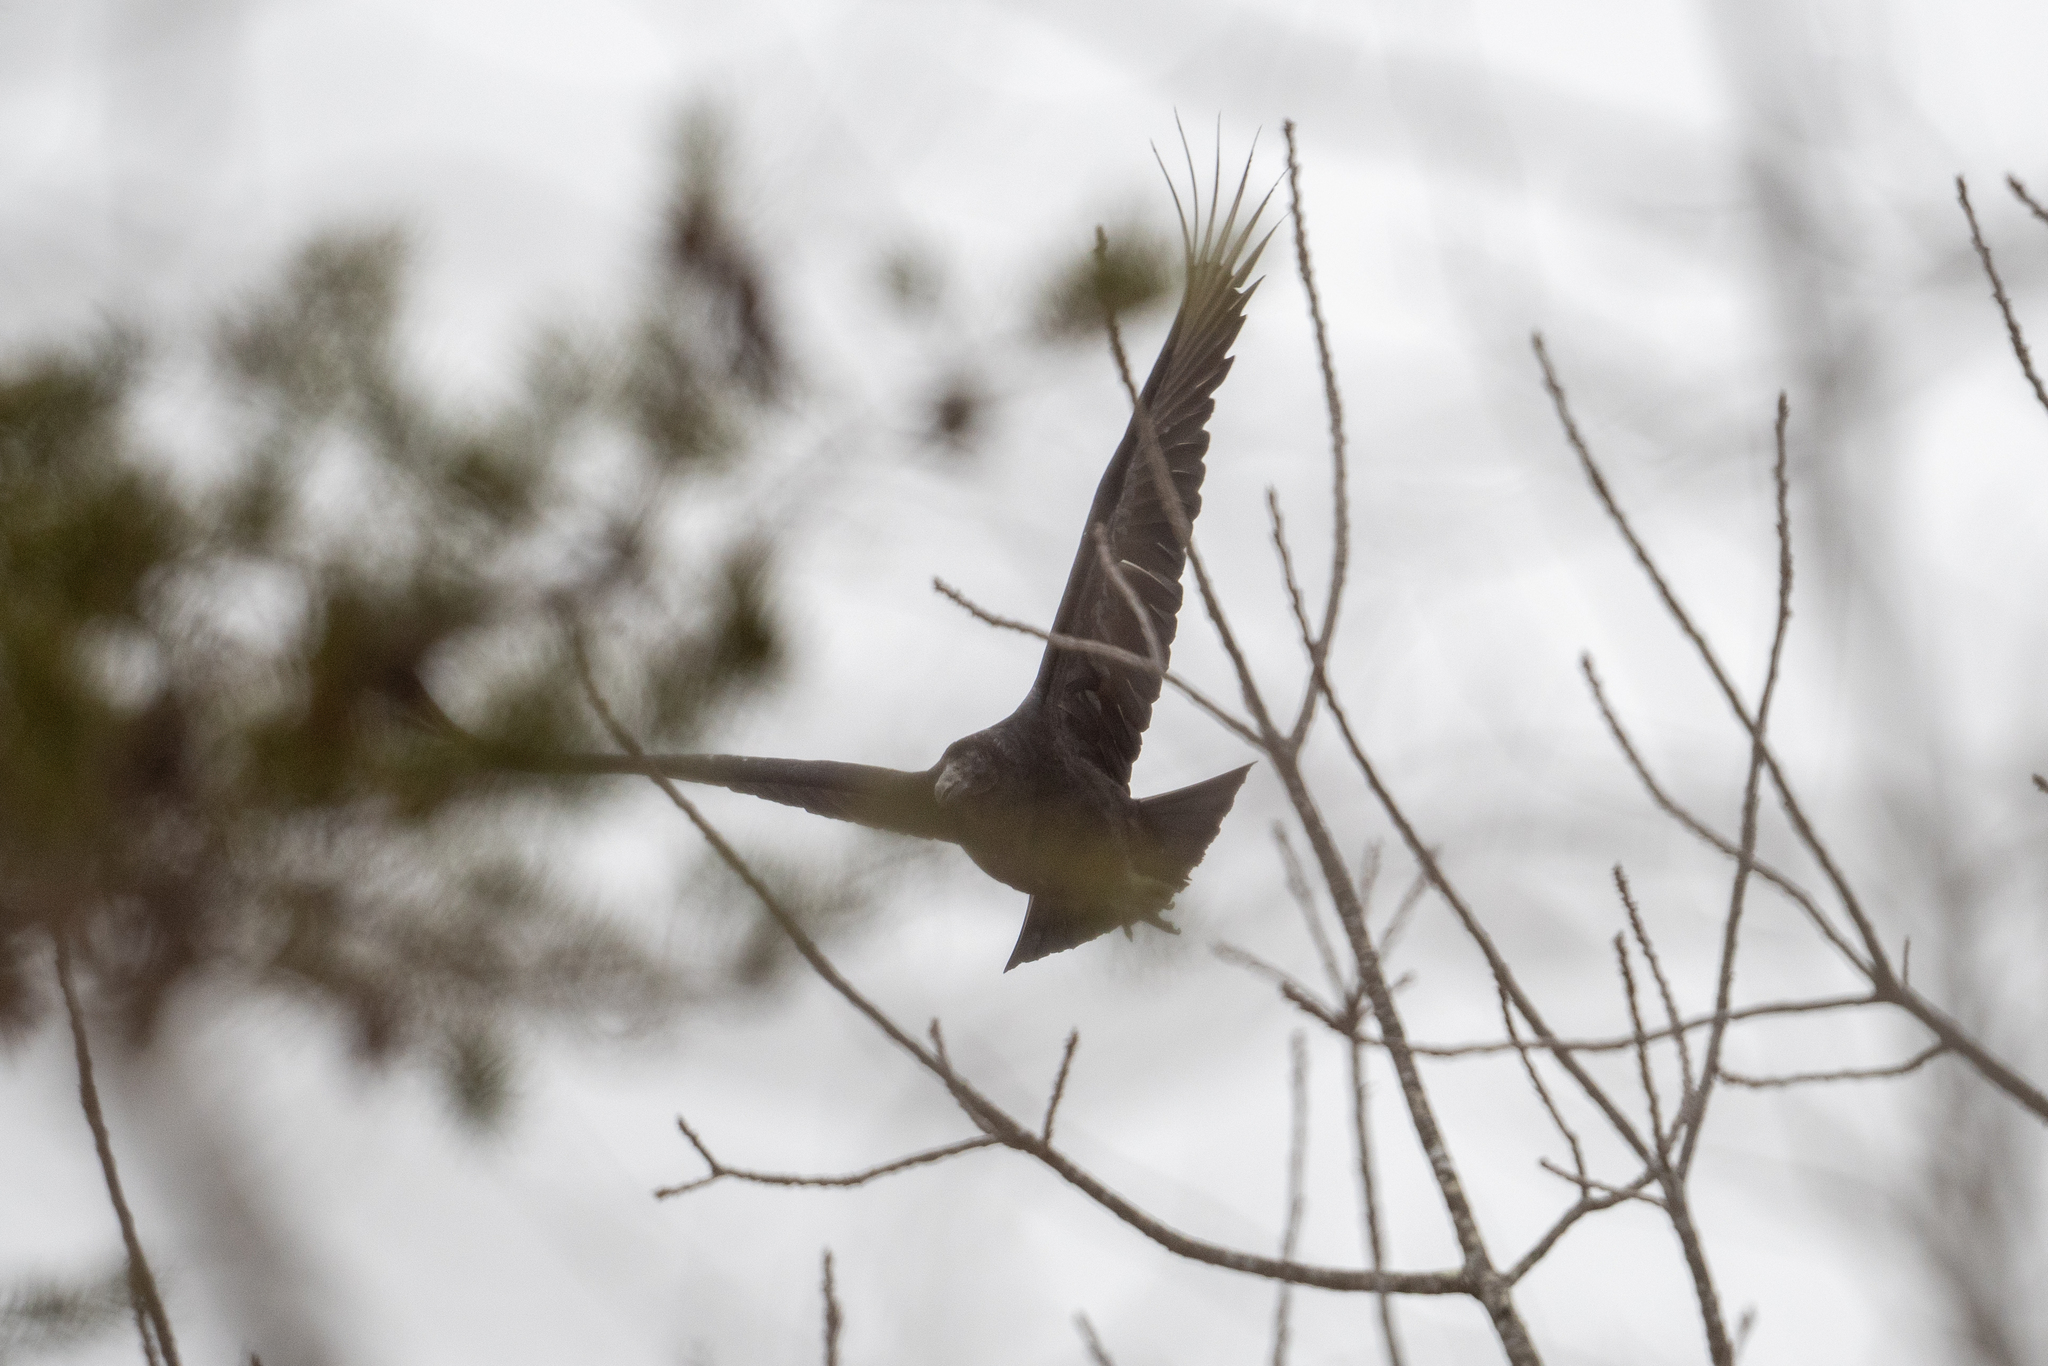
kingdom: Animalia
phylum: Chordata
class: Aves
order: Accipitriformes
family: Cathartidae
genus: Coragyps
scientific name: Coragyps atratus
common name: Black vulture
